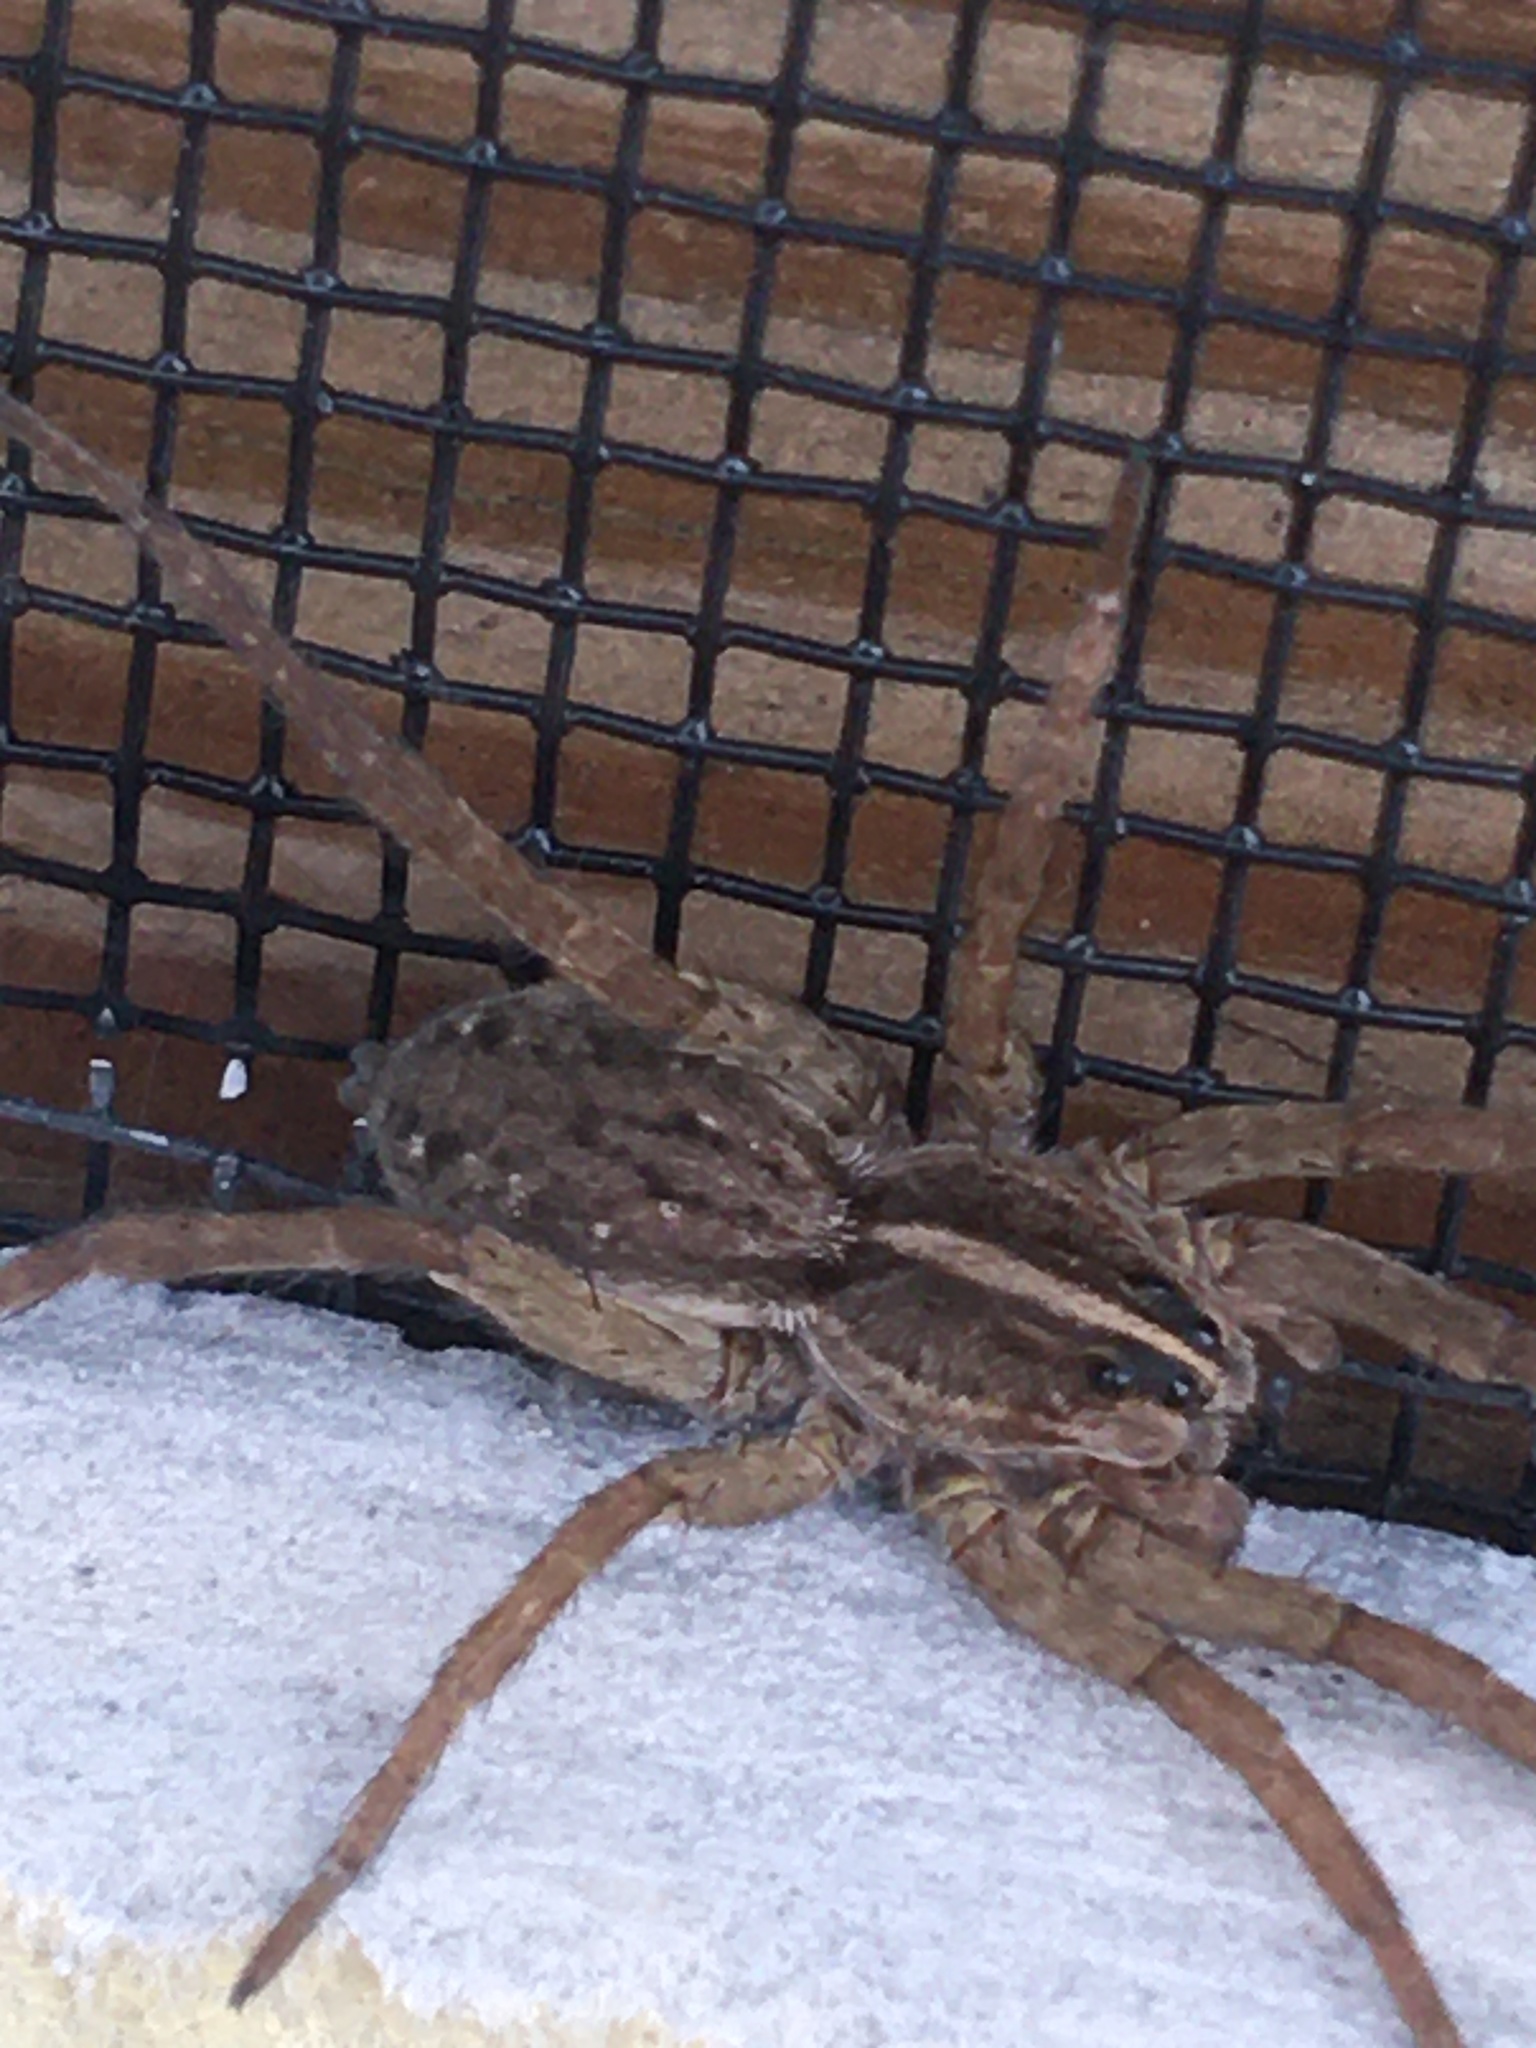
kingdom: Animalia
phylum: Arthropoda
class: Arachnida
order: Araneae
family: Lycosidae
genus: Tigrosa
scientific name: Tigrosa helluo
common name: Wetland giant wolf spider
